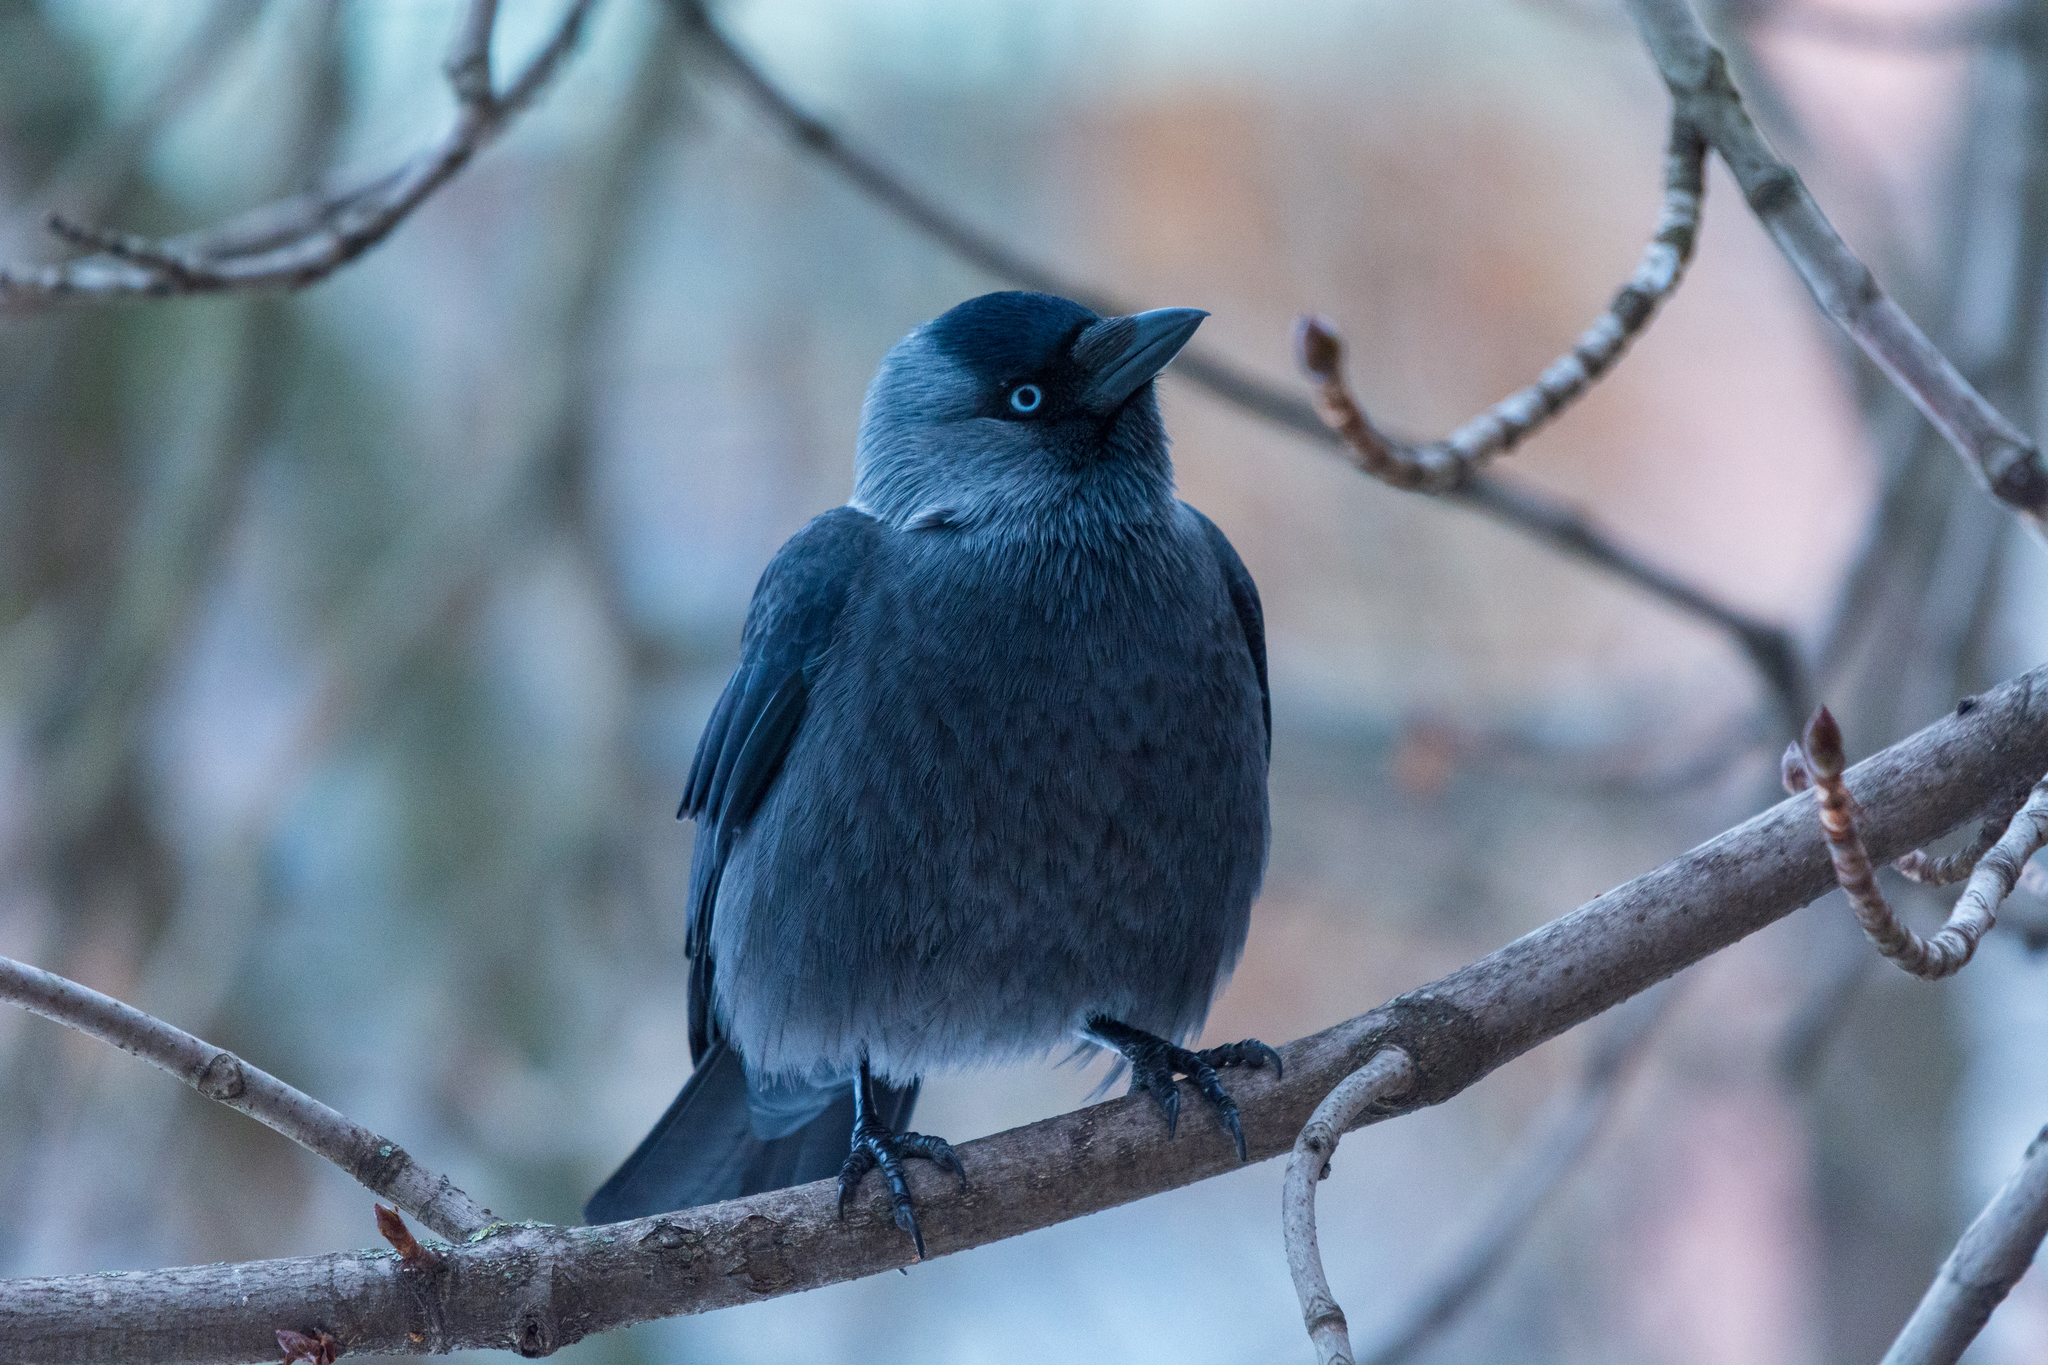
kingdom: Animalia
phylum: Chordata
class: Aves
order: Passeriformes
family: Corvidae
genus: Coloeus
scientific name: Coloeus monedula
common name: Western jackdaw
